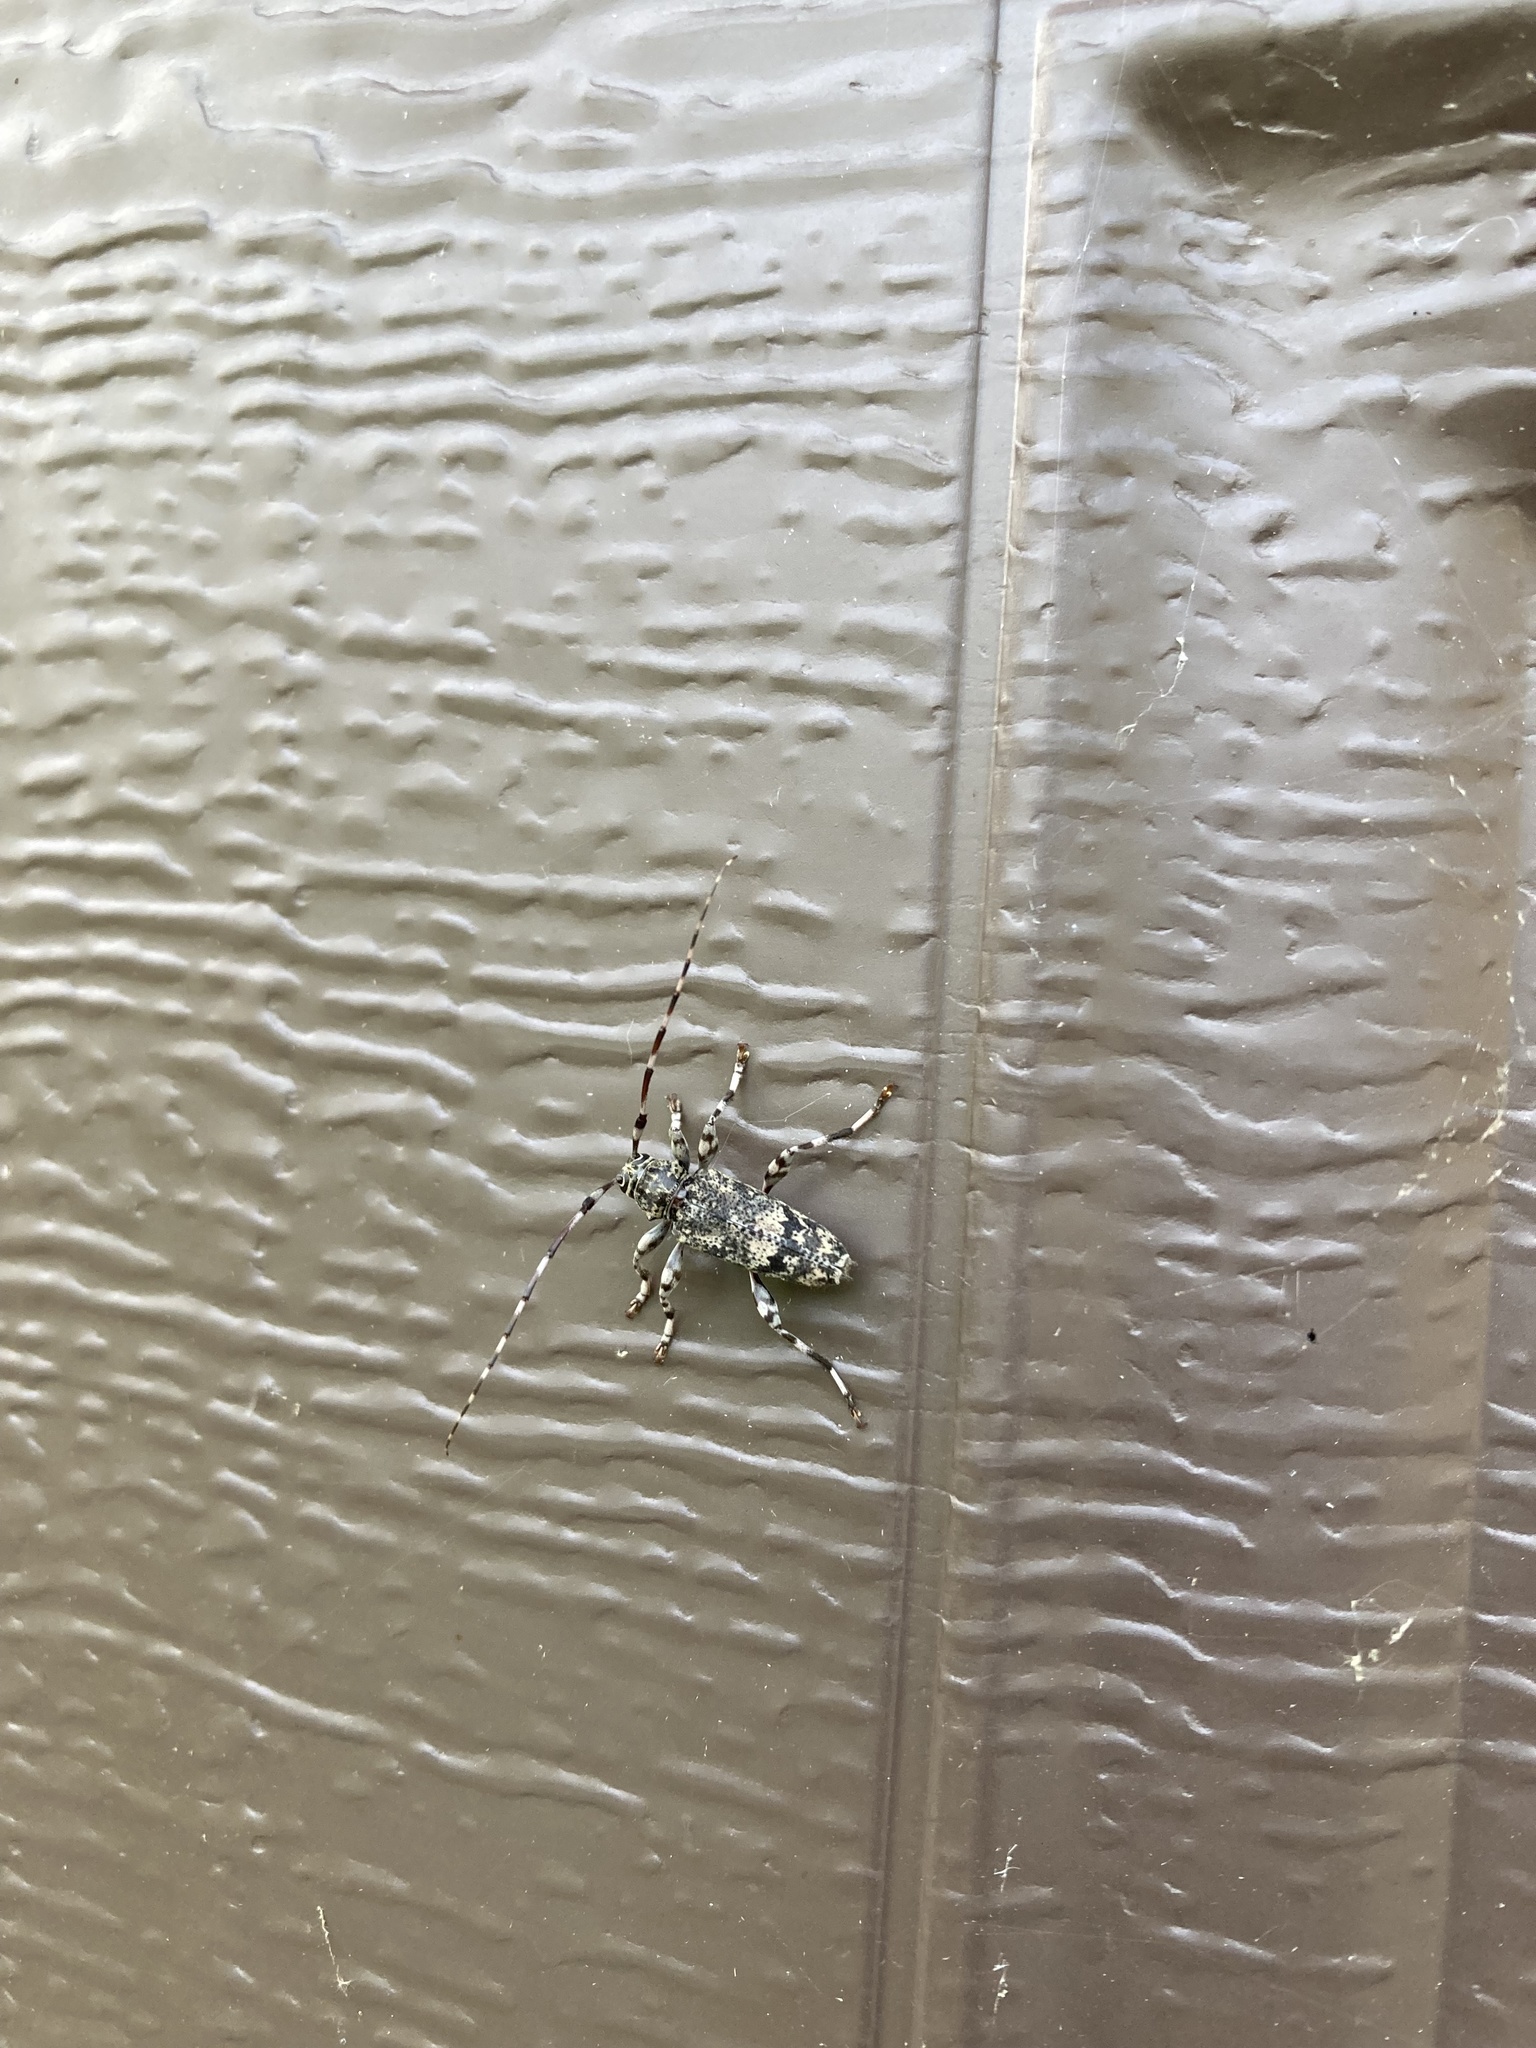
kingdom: Animalia
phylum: Arthropoda
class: Insecta
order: Coleoptera
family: Cerambycidae
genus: Graphisurus
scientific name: Graphisurus fasciatus
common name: Banded graphisurus
